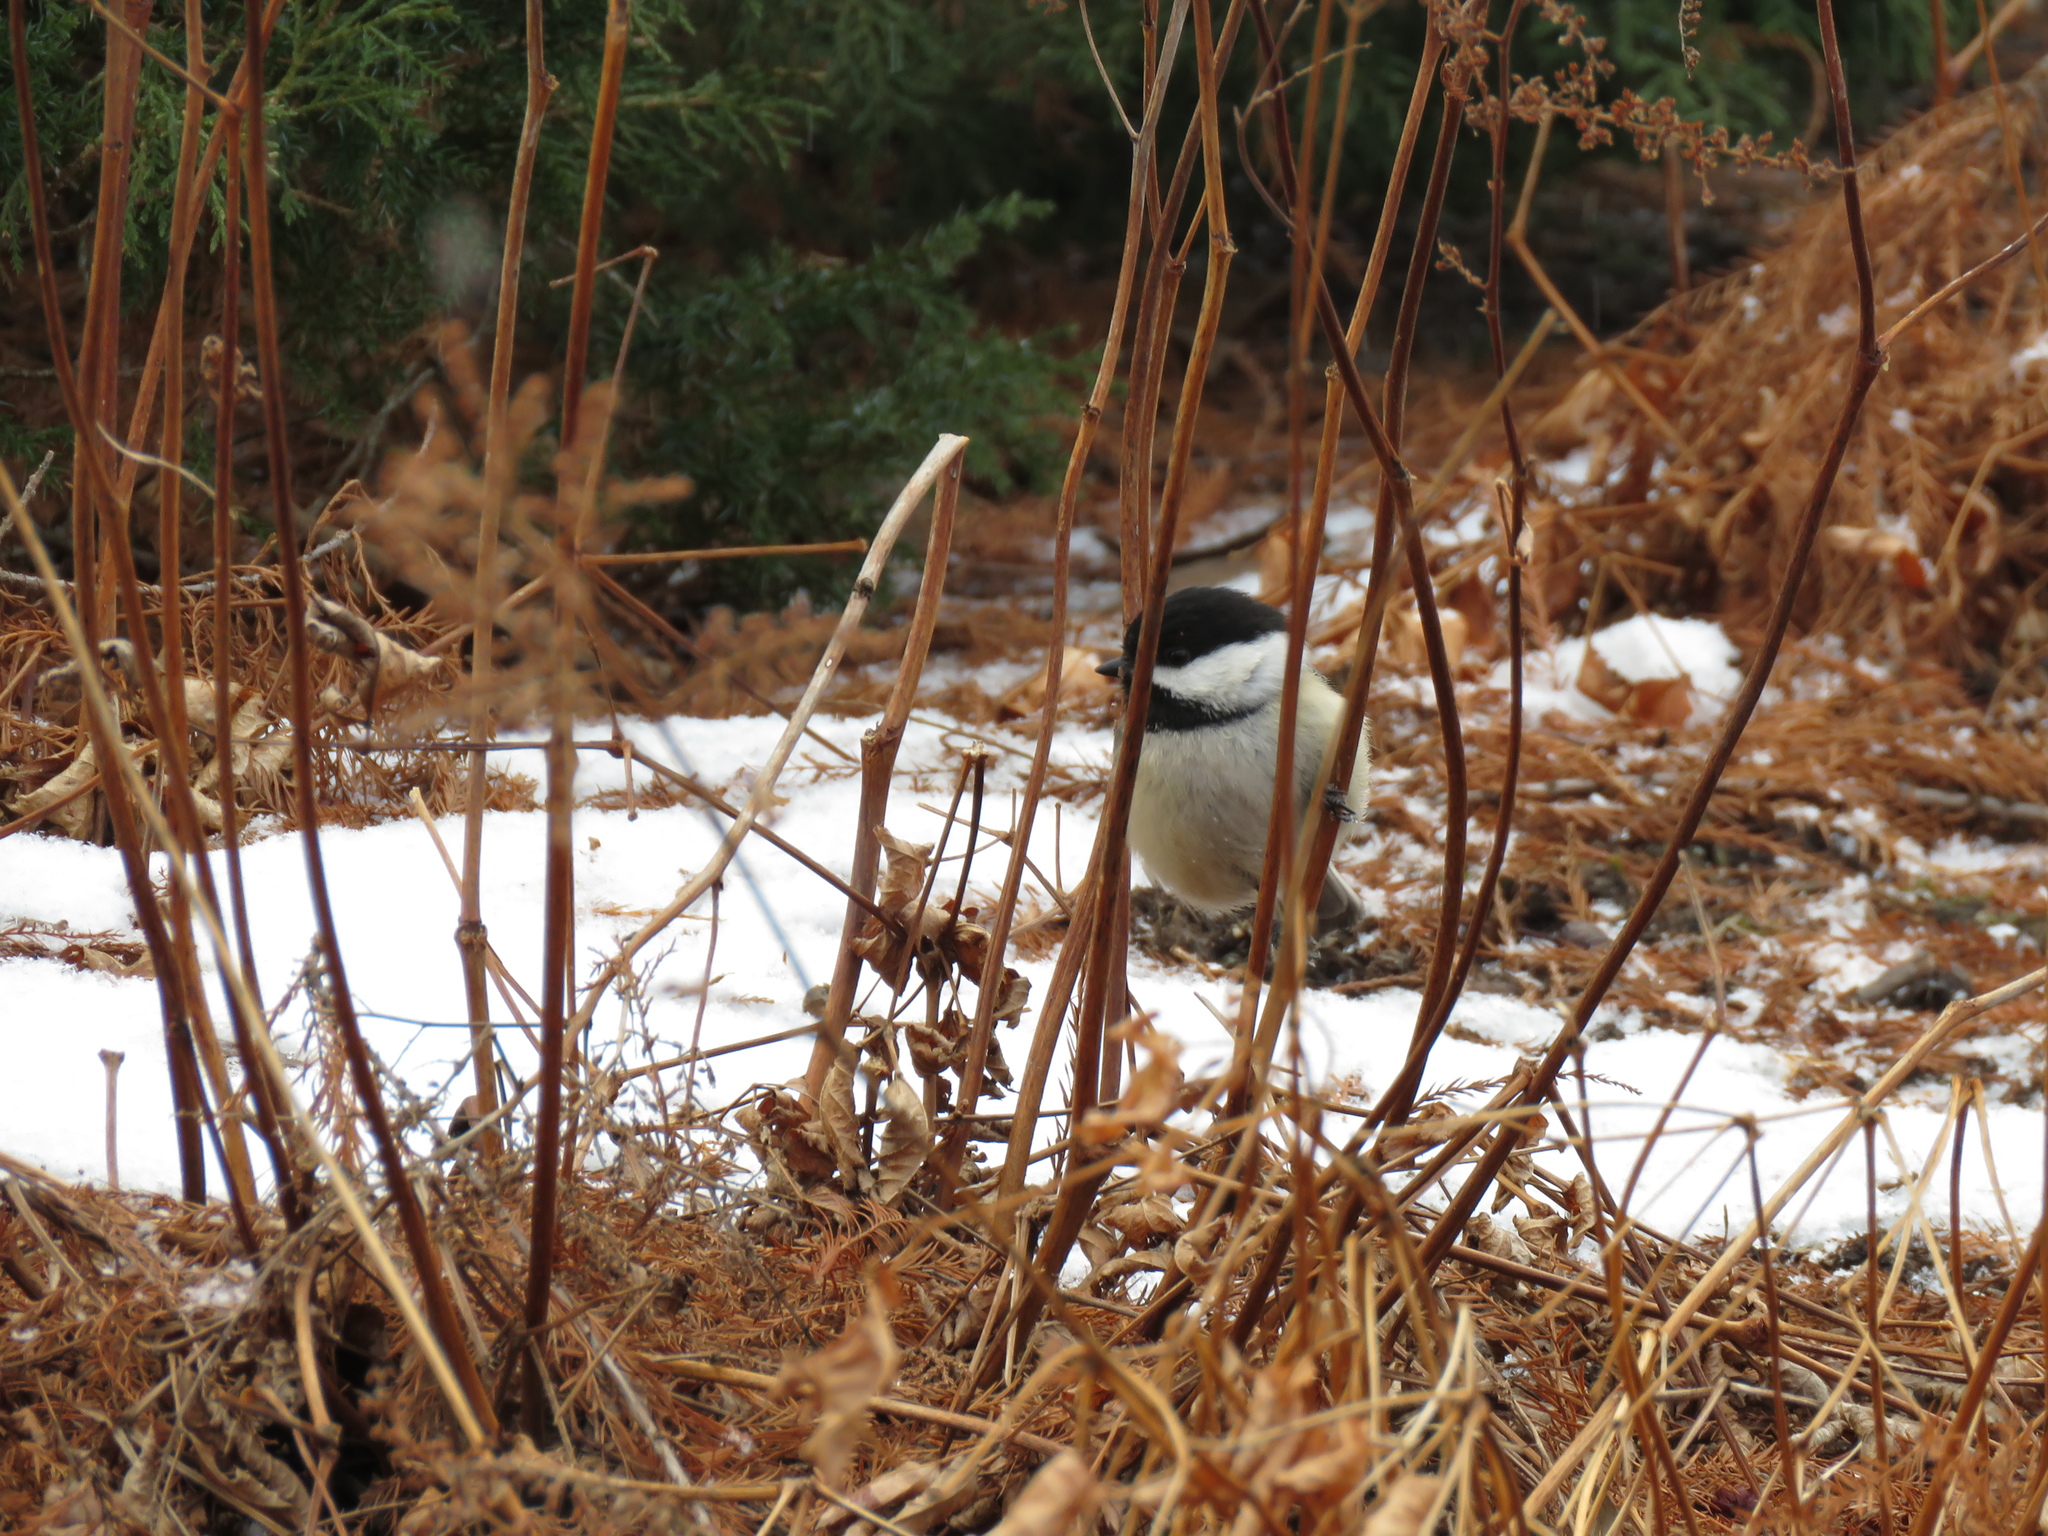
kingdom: Animalia
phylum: Chordata
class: Aves
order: Passeriformes
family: Paridae
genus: Poecile
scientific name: Poecile atricapillus
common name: Black-capped chickadee
